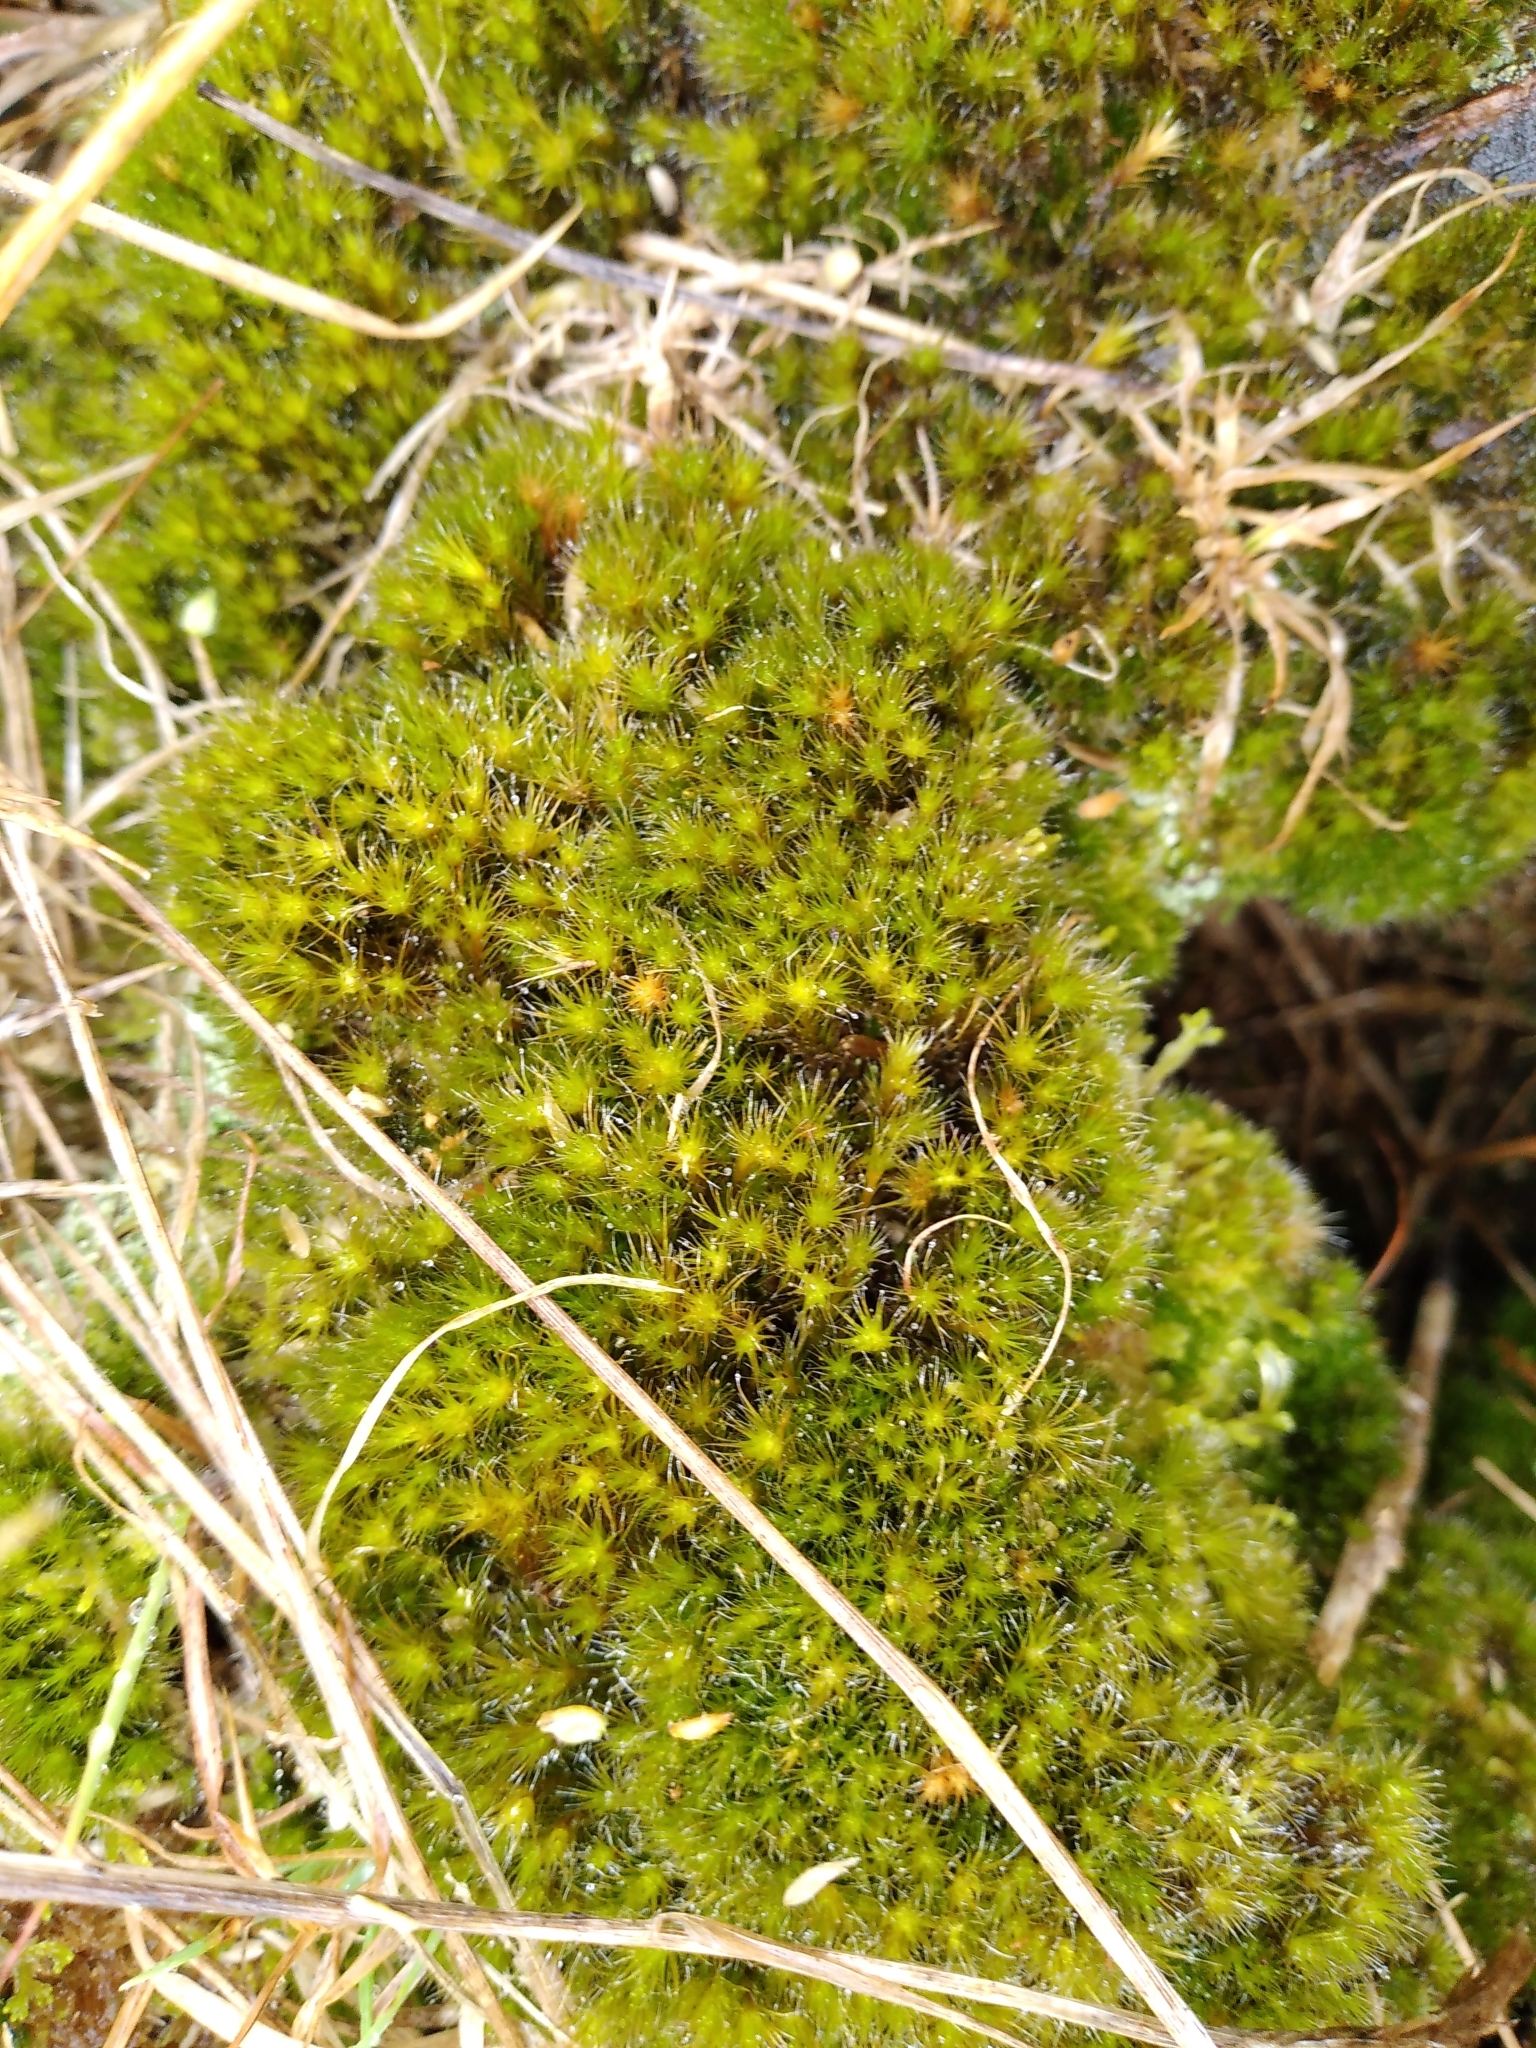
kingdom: Plantae
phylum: Bryophyta
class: Bryopsida
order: Dicranales
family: Leucobryaceae
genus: Campylopus
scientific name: Campylopus introflexus
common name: Heath star moss
